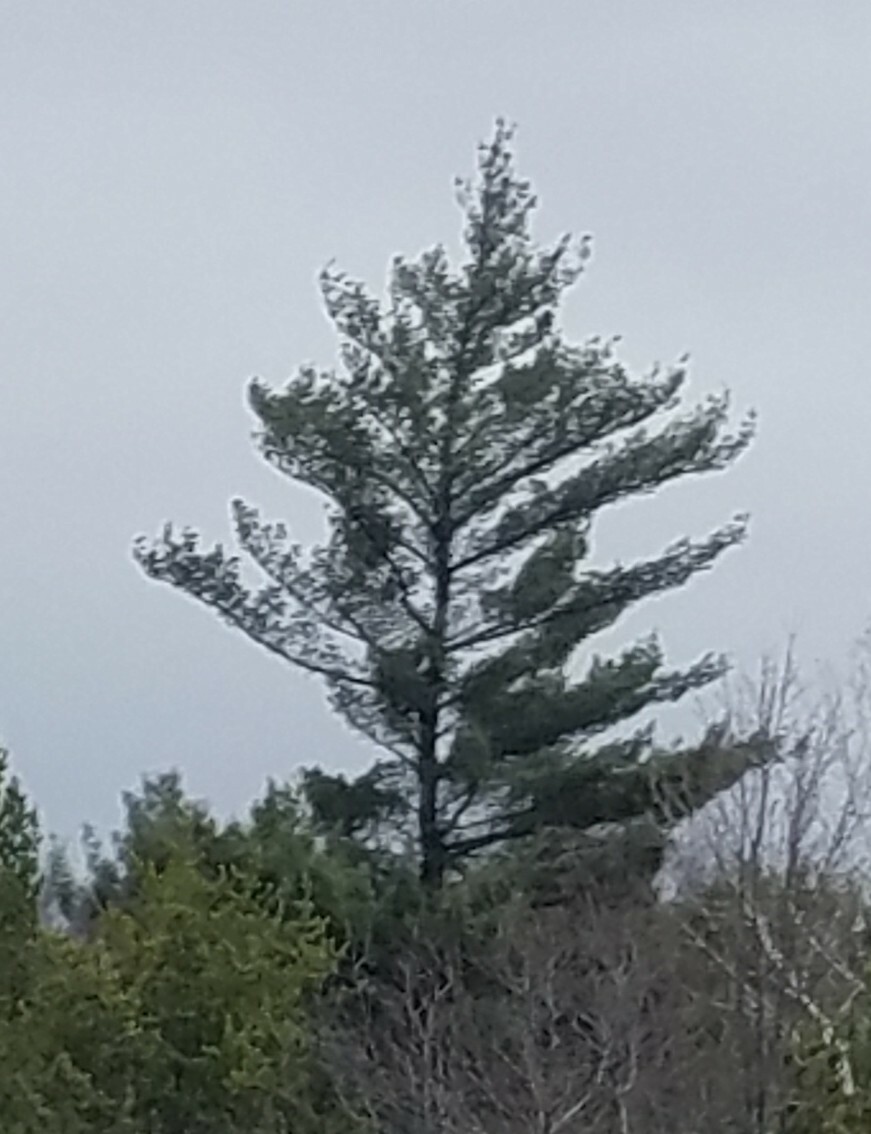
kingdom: Plantae
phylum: Tracheophyta
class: Pinopsida
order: Pinales
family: Pinaceae
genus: Pinus
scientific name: Pinus strobus
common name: Weymouth pine
